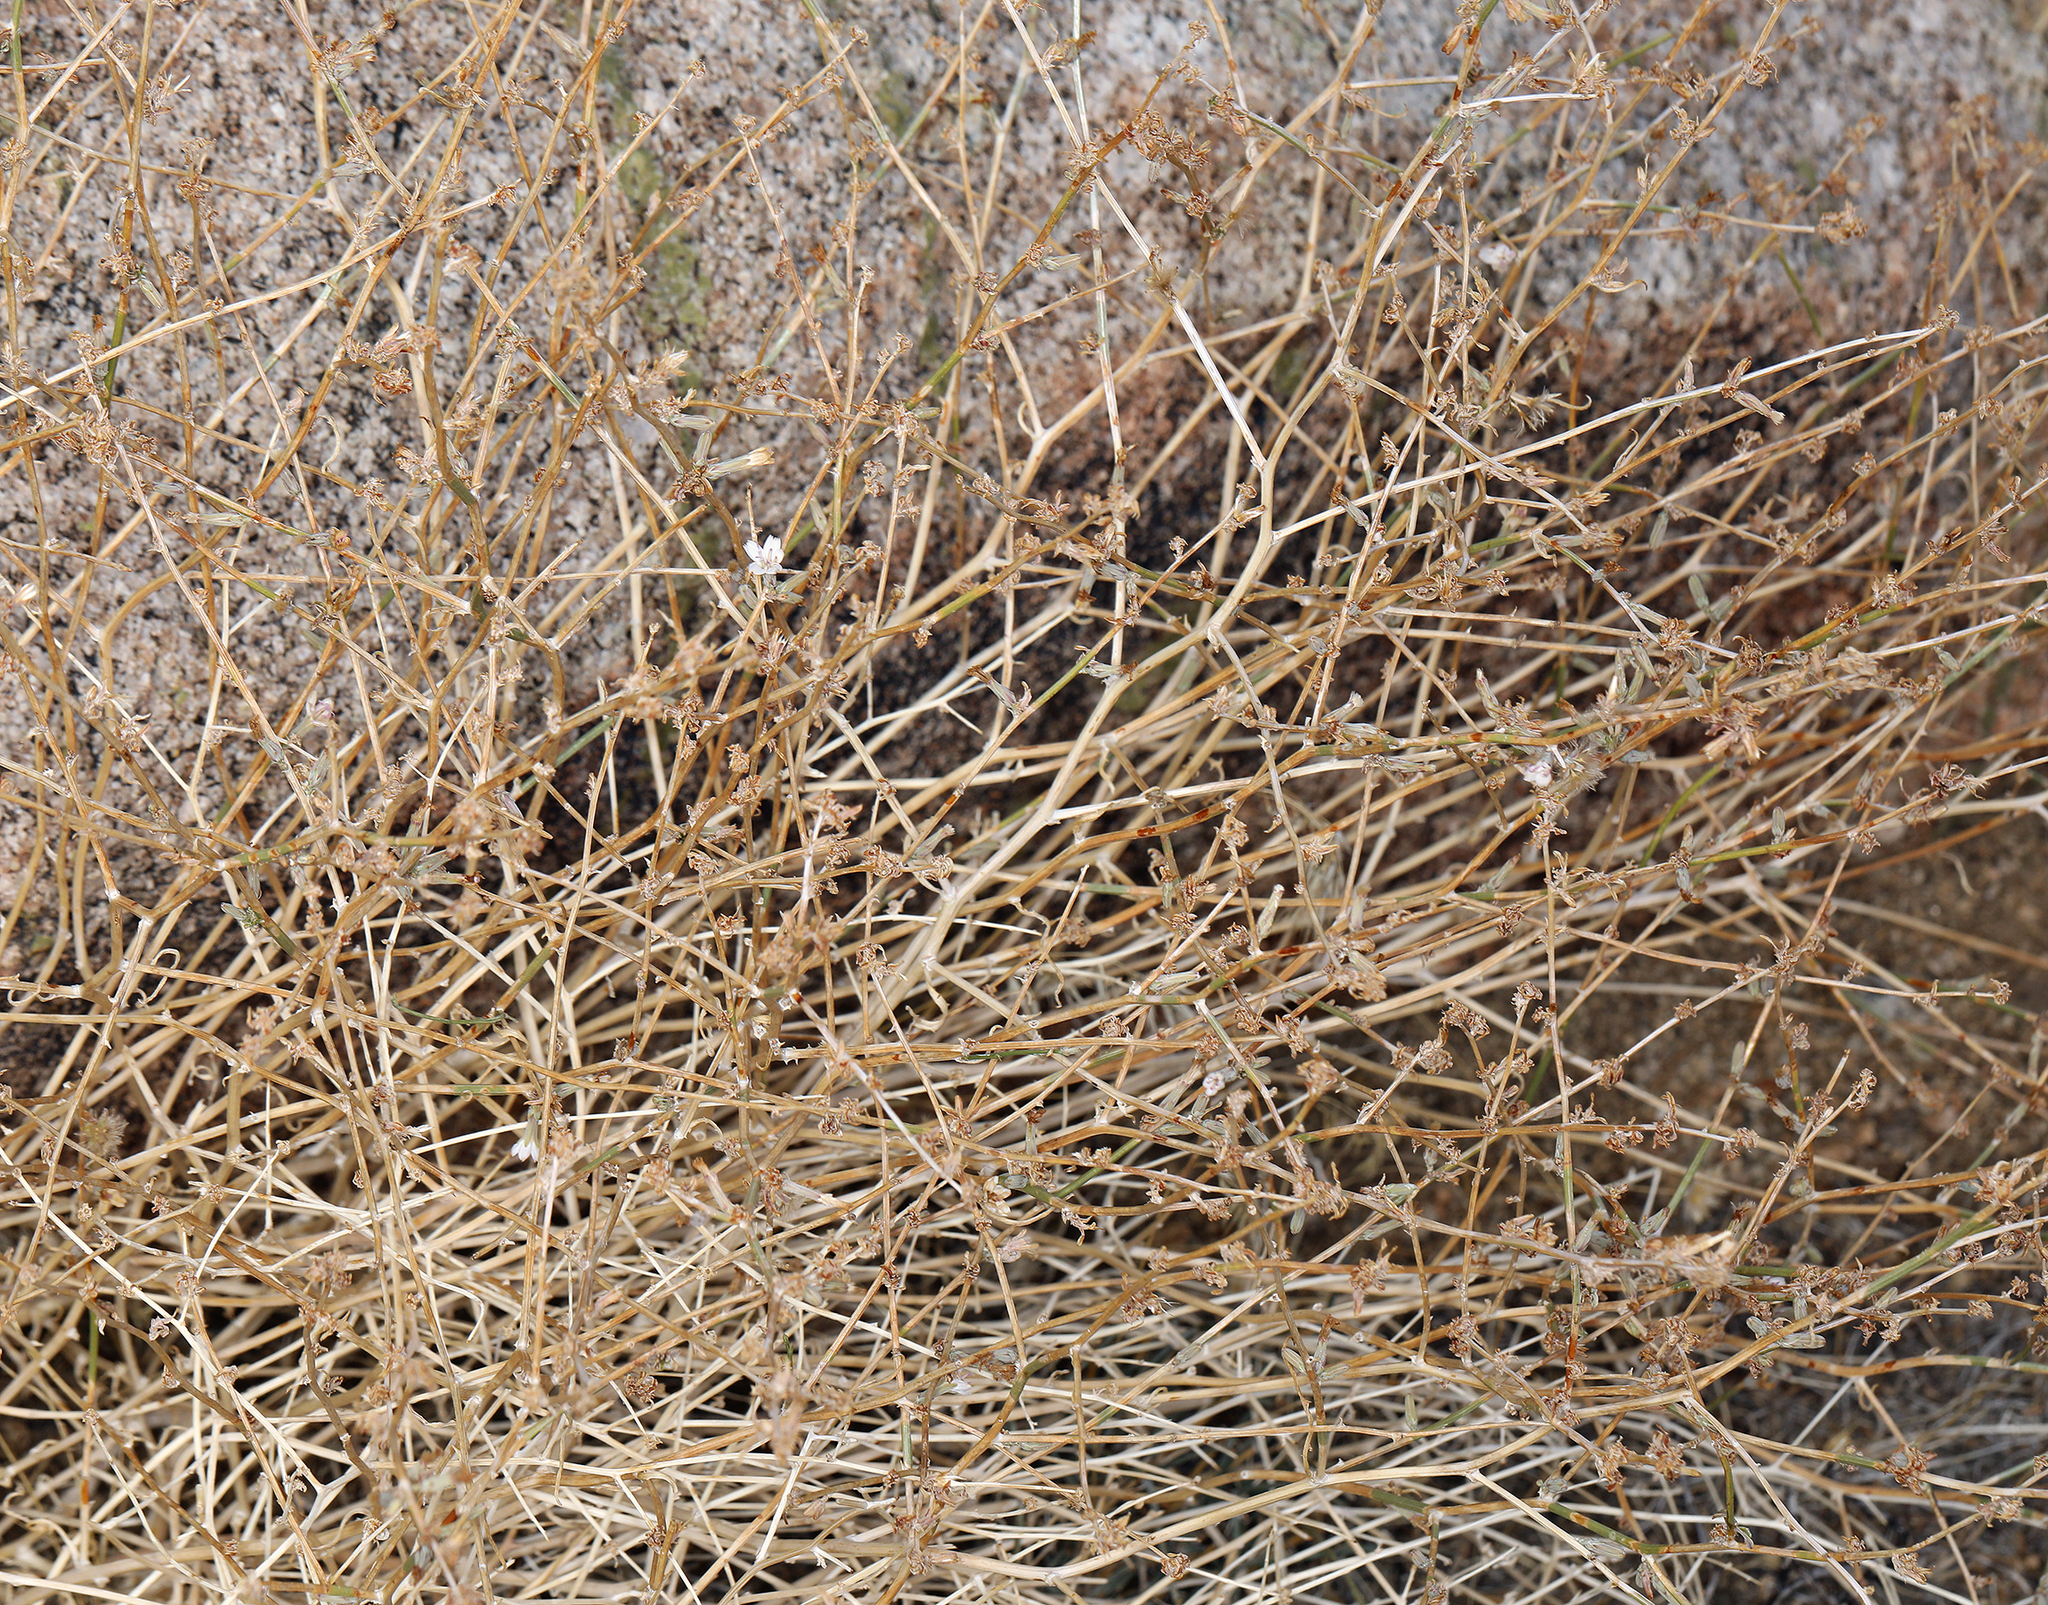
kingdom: Plantae
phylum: Tracheophyta
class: Magnoliopsida
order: Asterales
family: Asteraceae
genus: Stephanomeria
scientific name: Stephanomeria pauciflora
